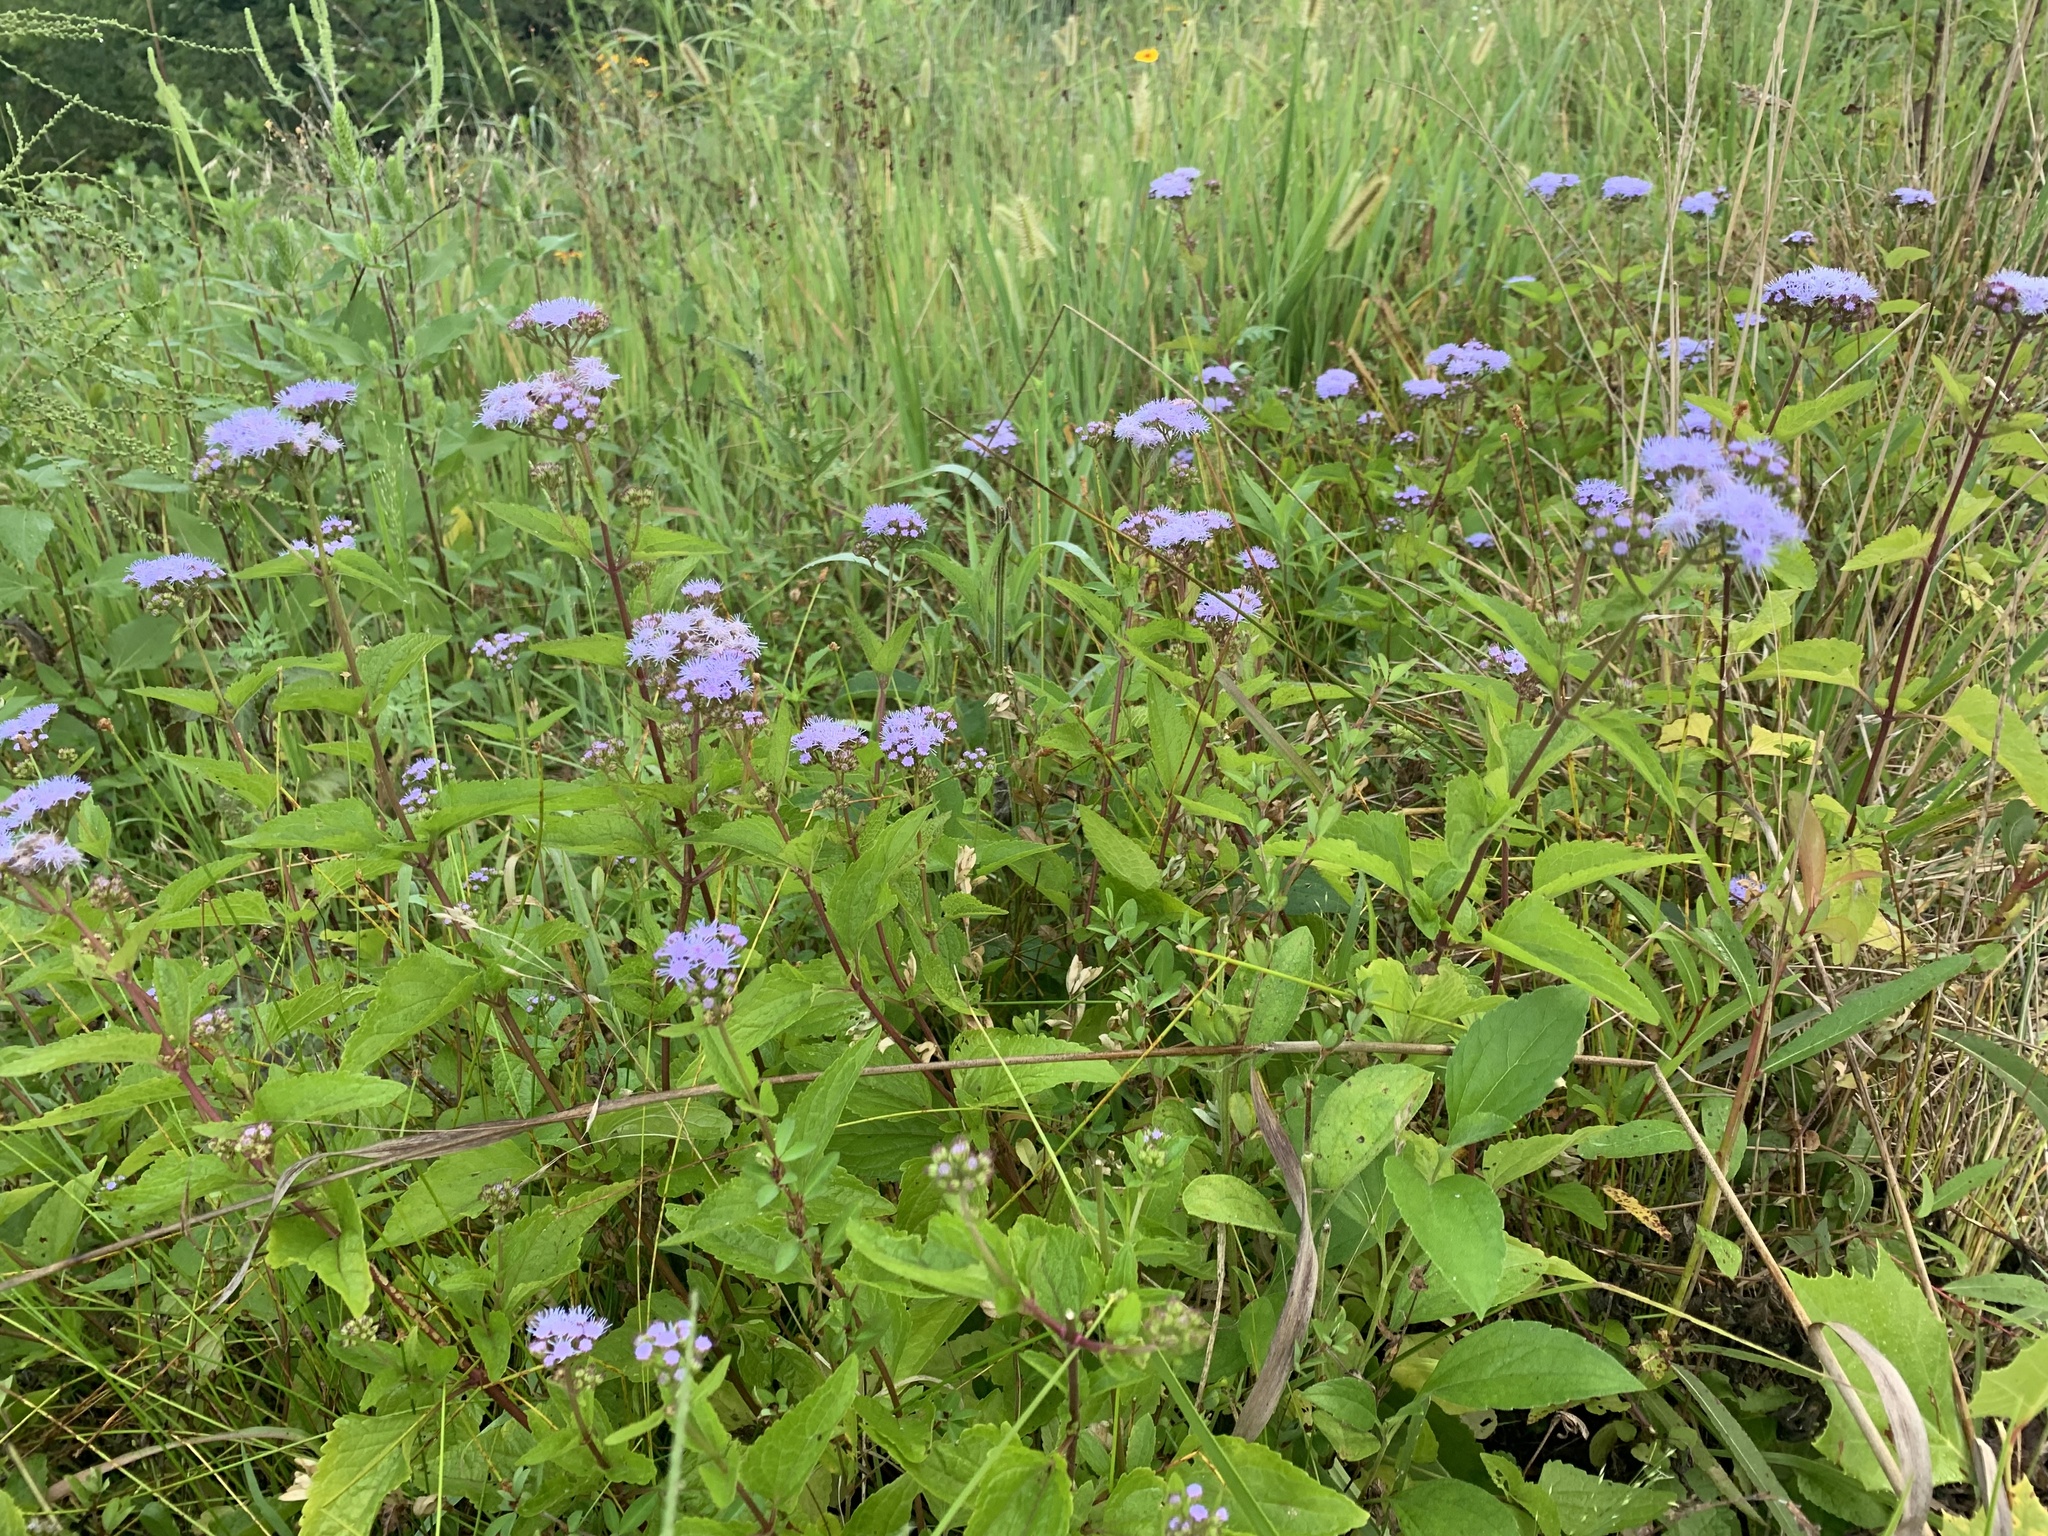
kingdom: Plantae
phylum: Tracheophyta
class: Magnoliopsida
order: Asterales
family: Asteraceae
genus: Conoclinium
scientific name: Conoclinium coelestinum
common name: Blue mistflower
